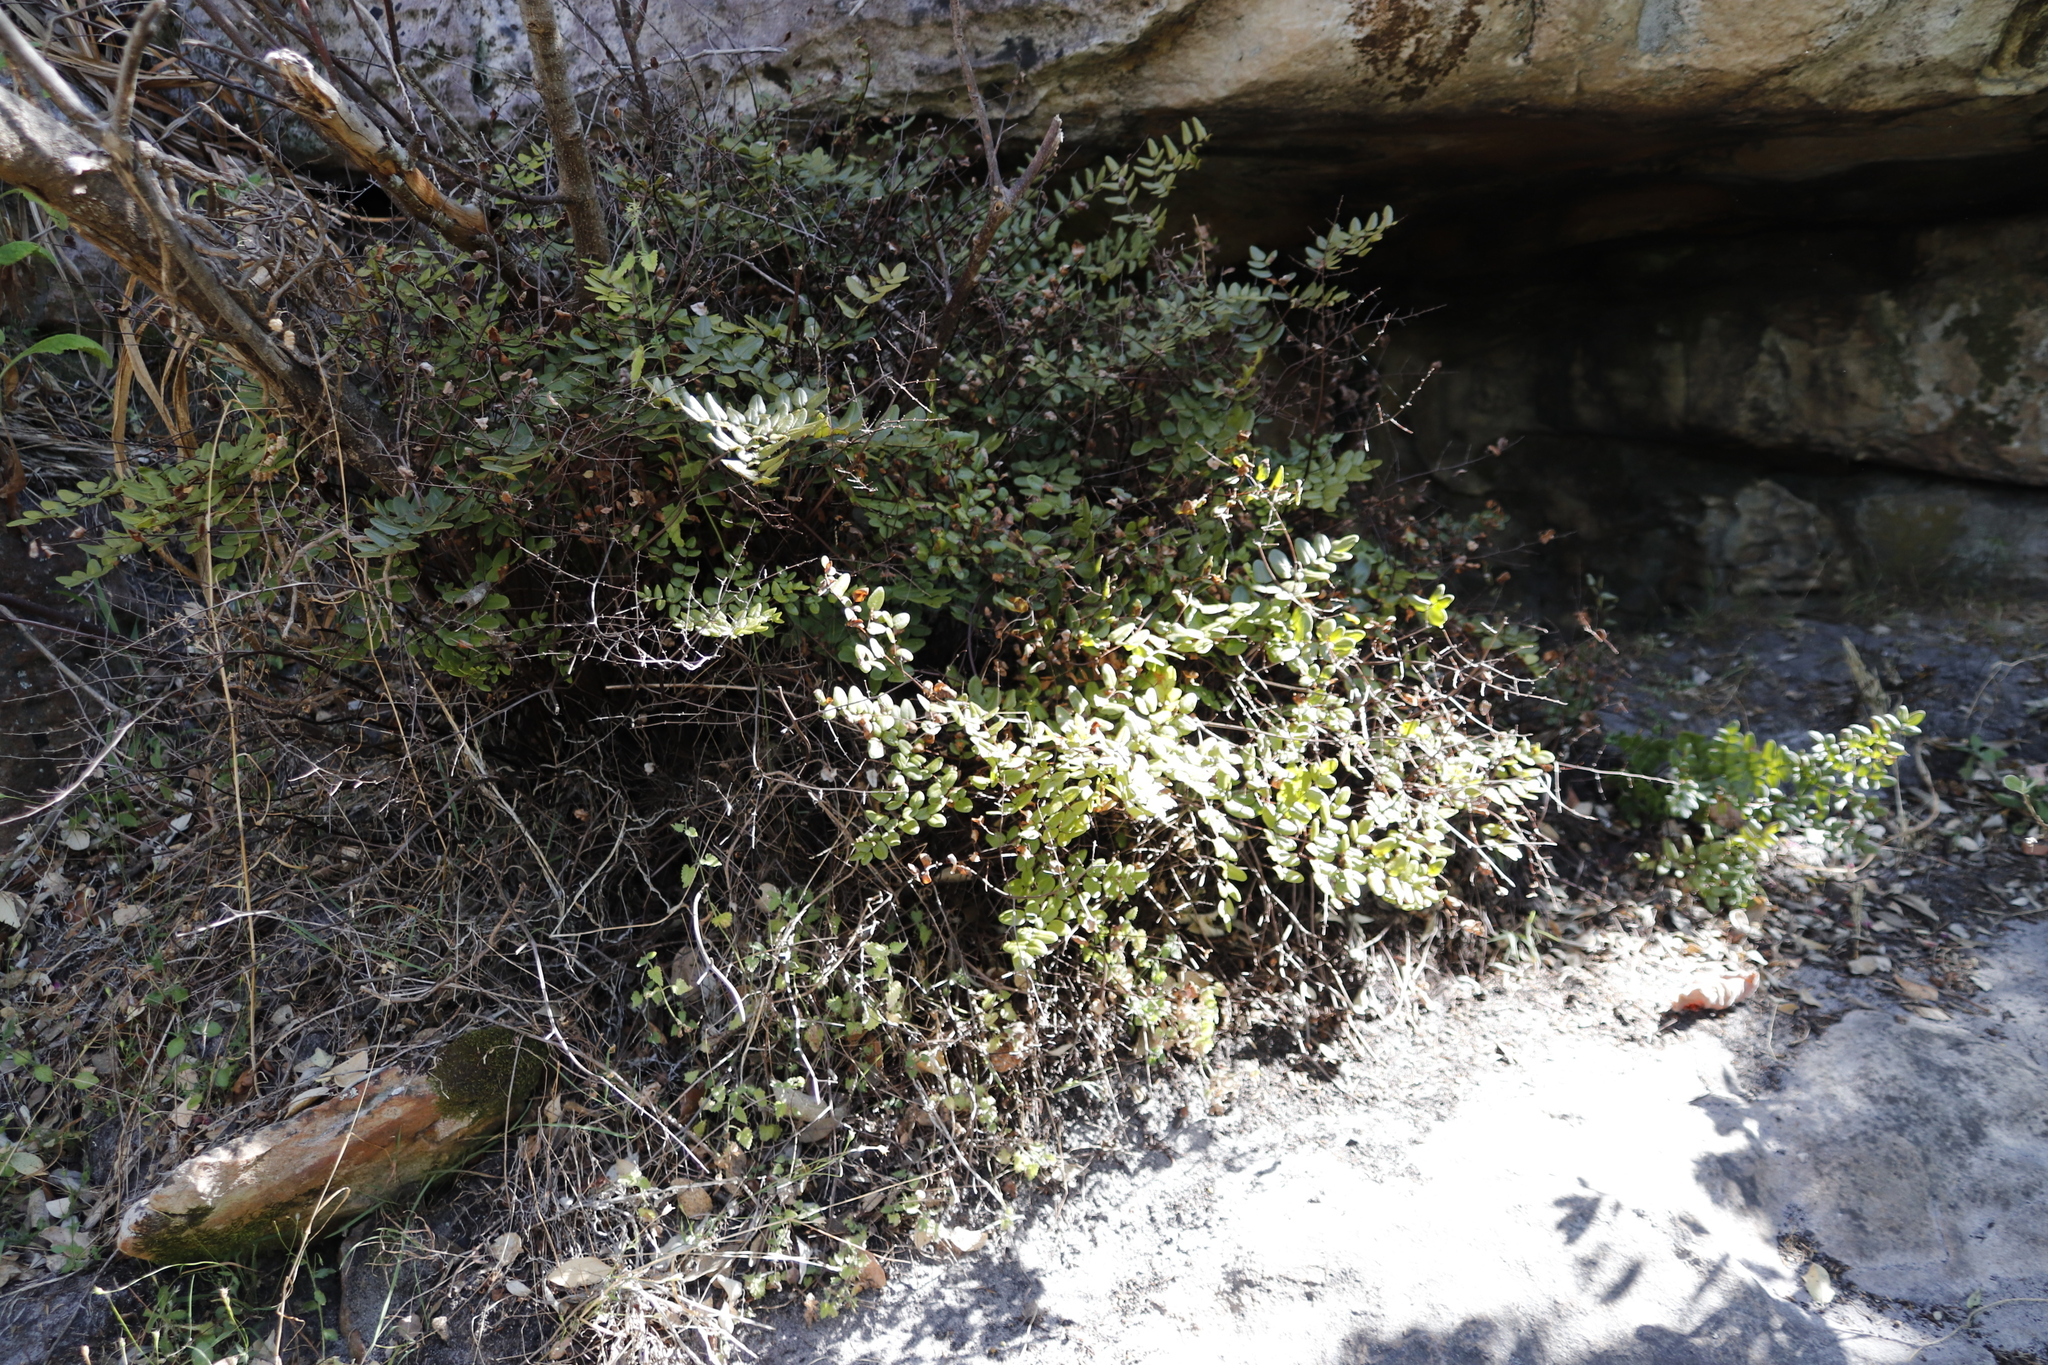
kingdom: Plantae
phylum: Tracheophyta
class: Polypodiopsida
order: Polypodiales
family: Pteridaceae
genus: Pellaea
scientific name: Pellaea pteroides
